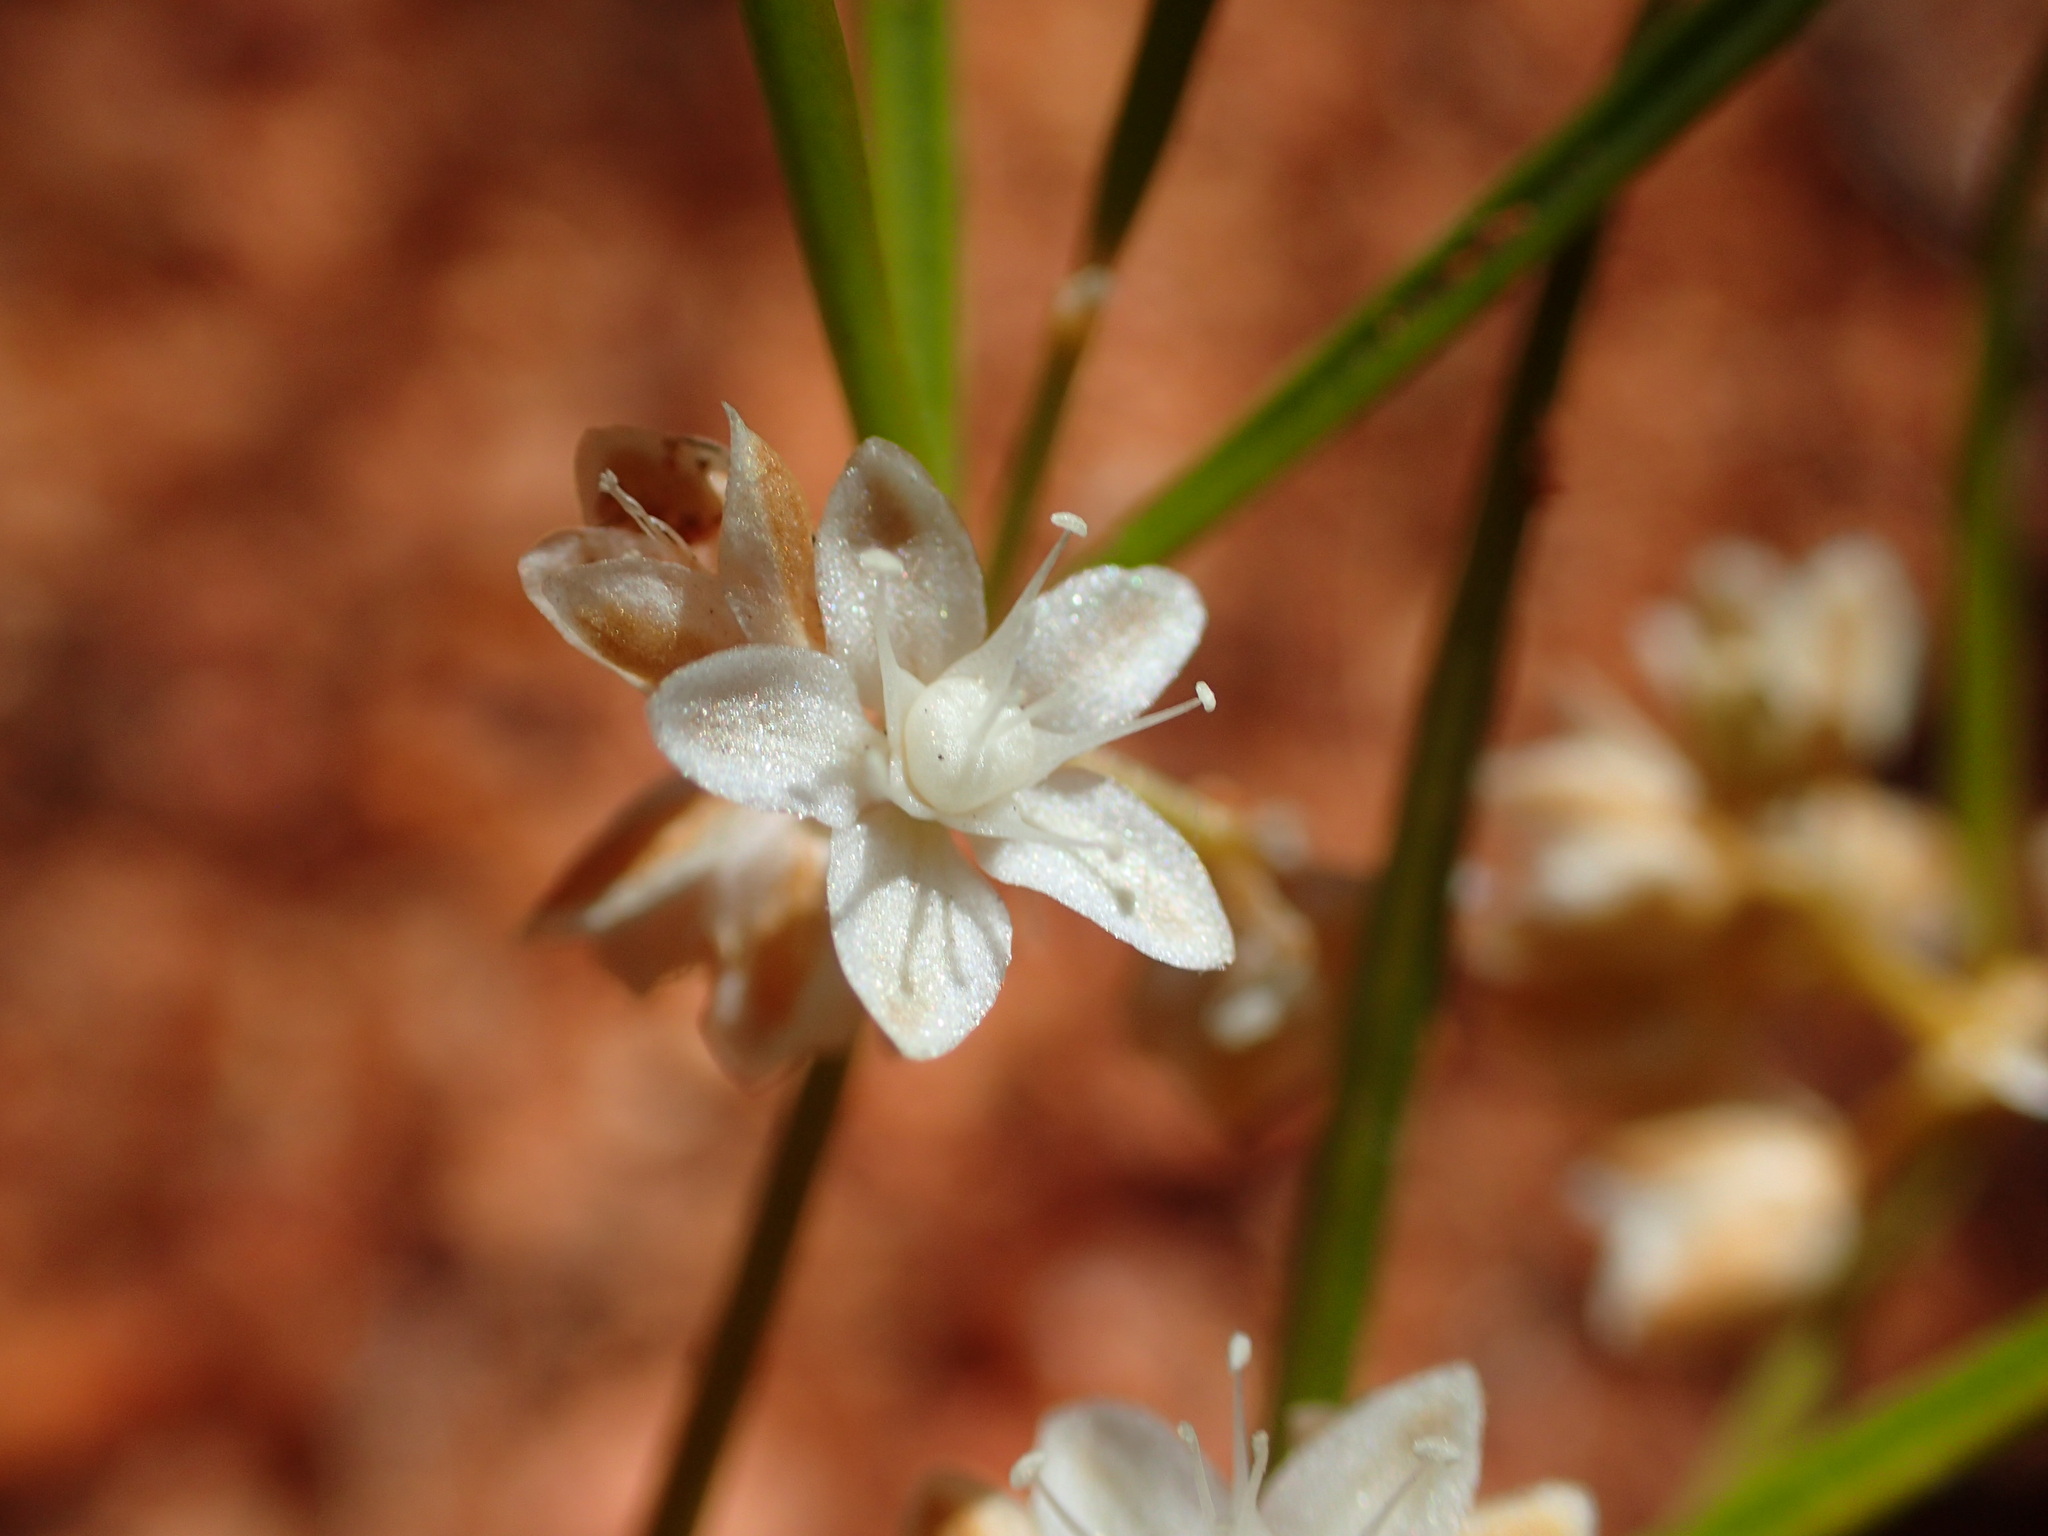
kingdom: Plantae
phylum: Tracheophyta
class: Magnoliopsida
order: Caryophyllales
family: Molluginaceae
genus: Trigastrotheca
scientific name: Trigastrotheca molluginea
